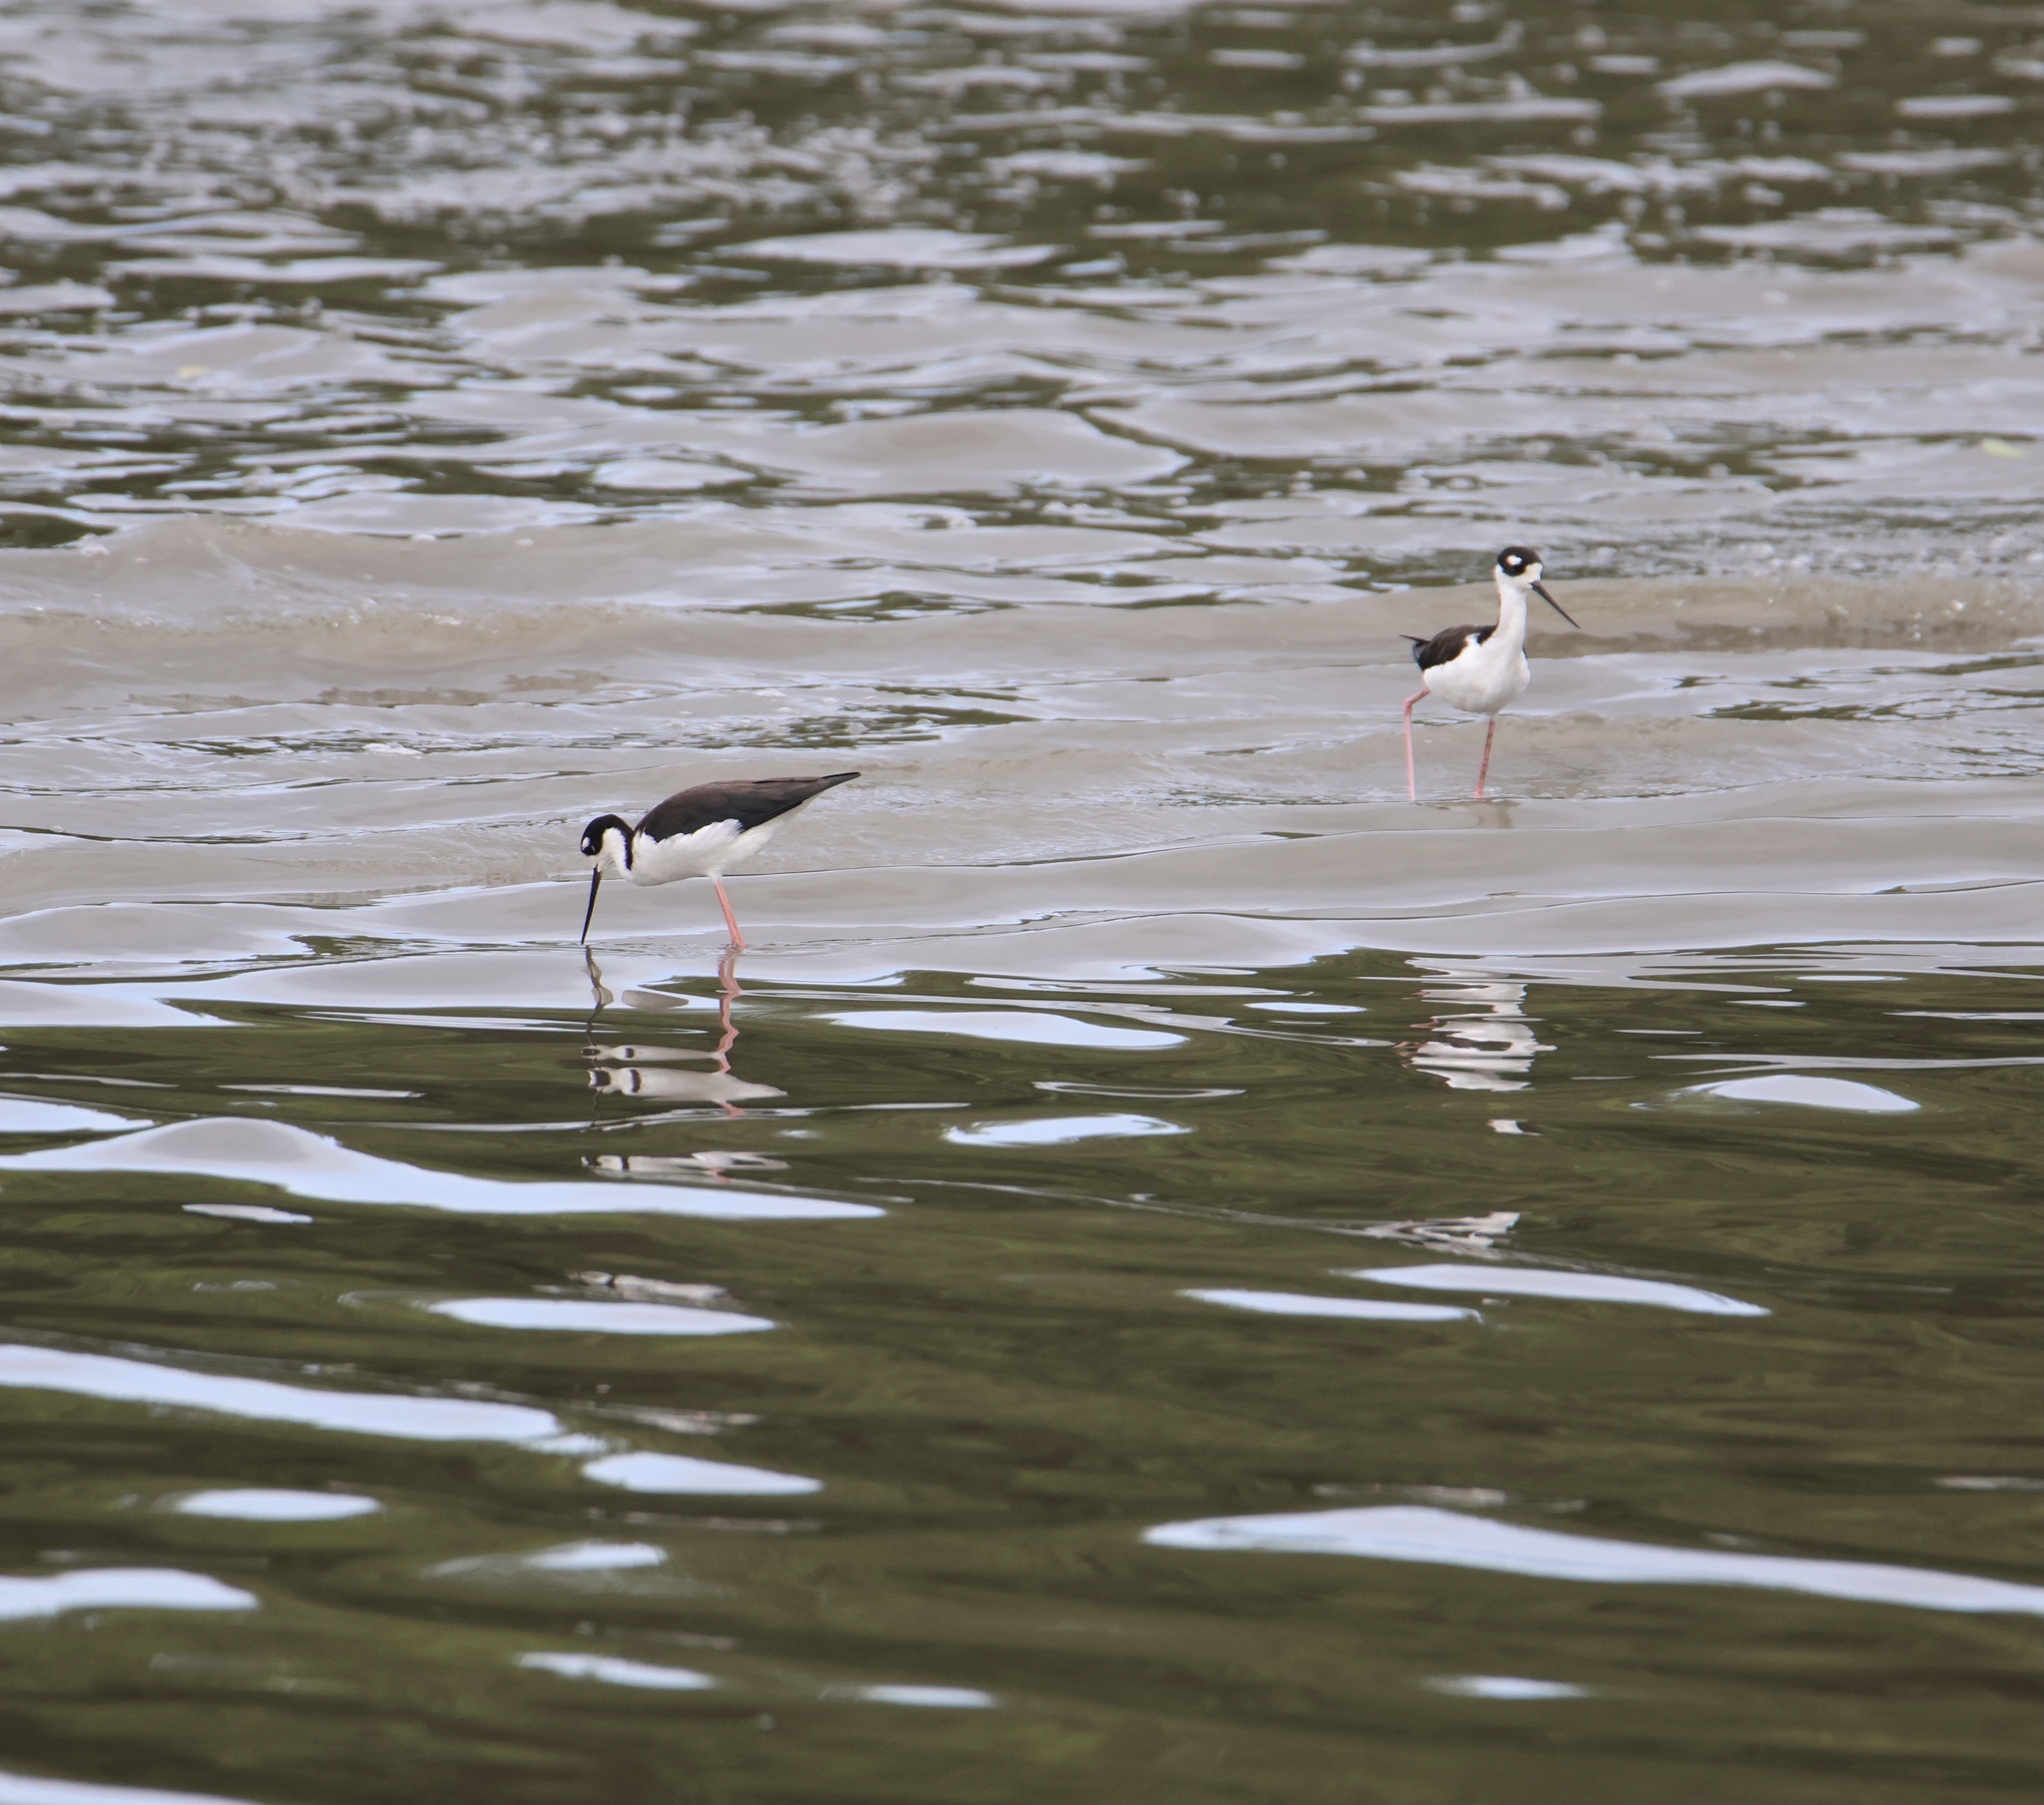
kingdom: Animalia
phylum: Chordata
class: Aves
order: Charadriiformes
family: Recurvirostridae
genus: Himantopus
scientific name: Himantopus mexicanus
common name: Black-necked stilt
